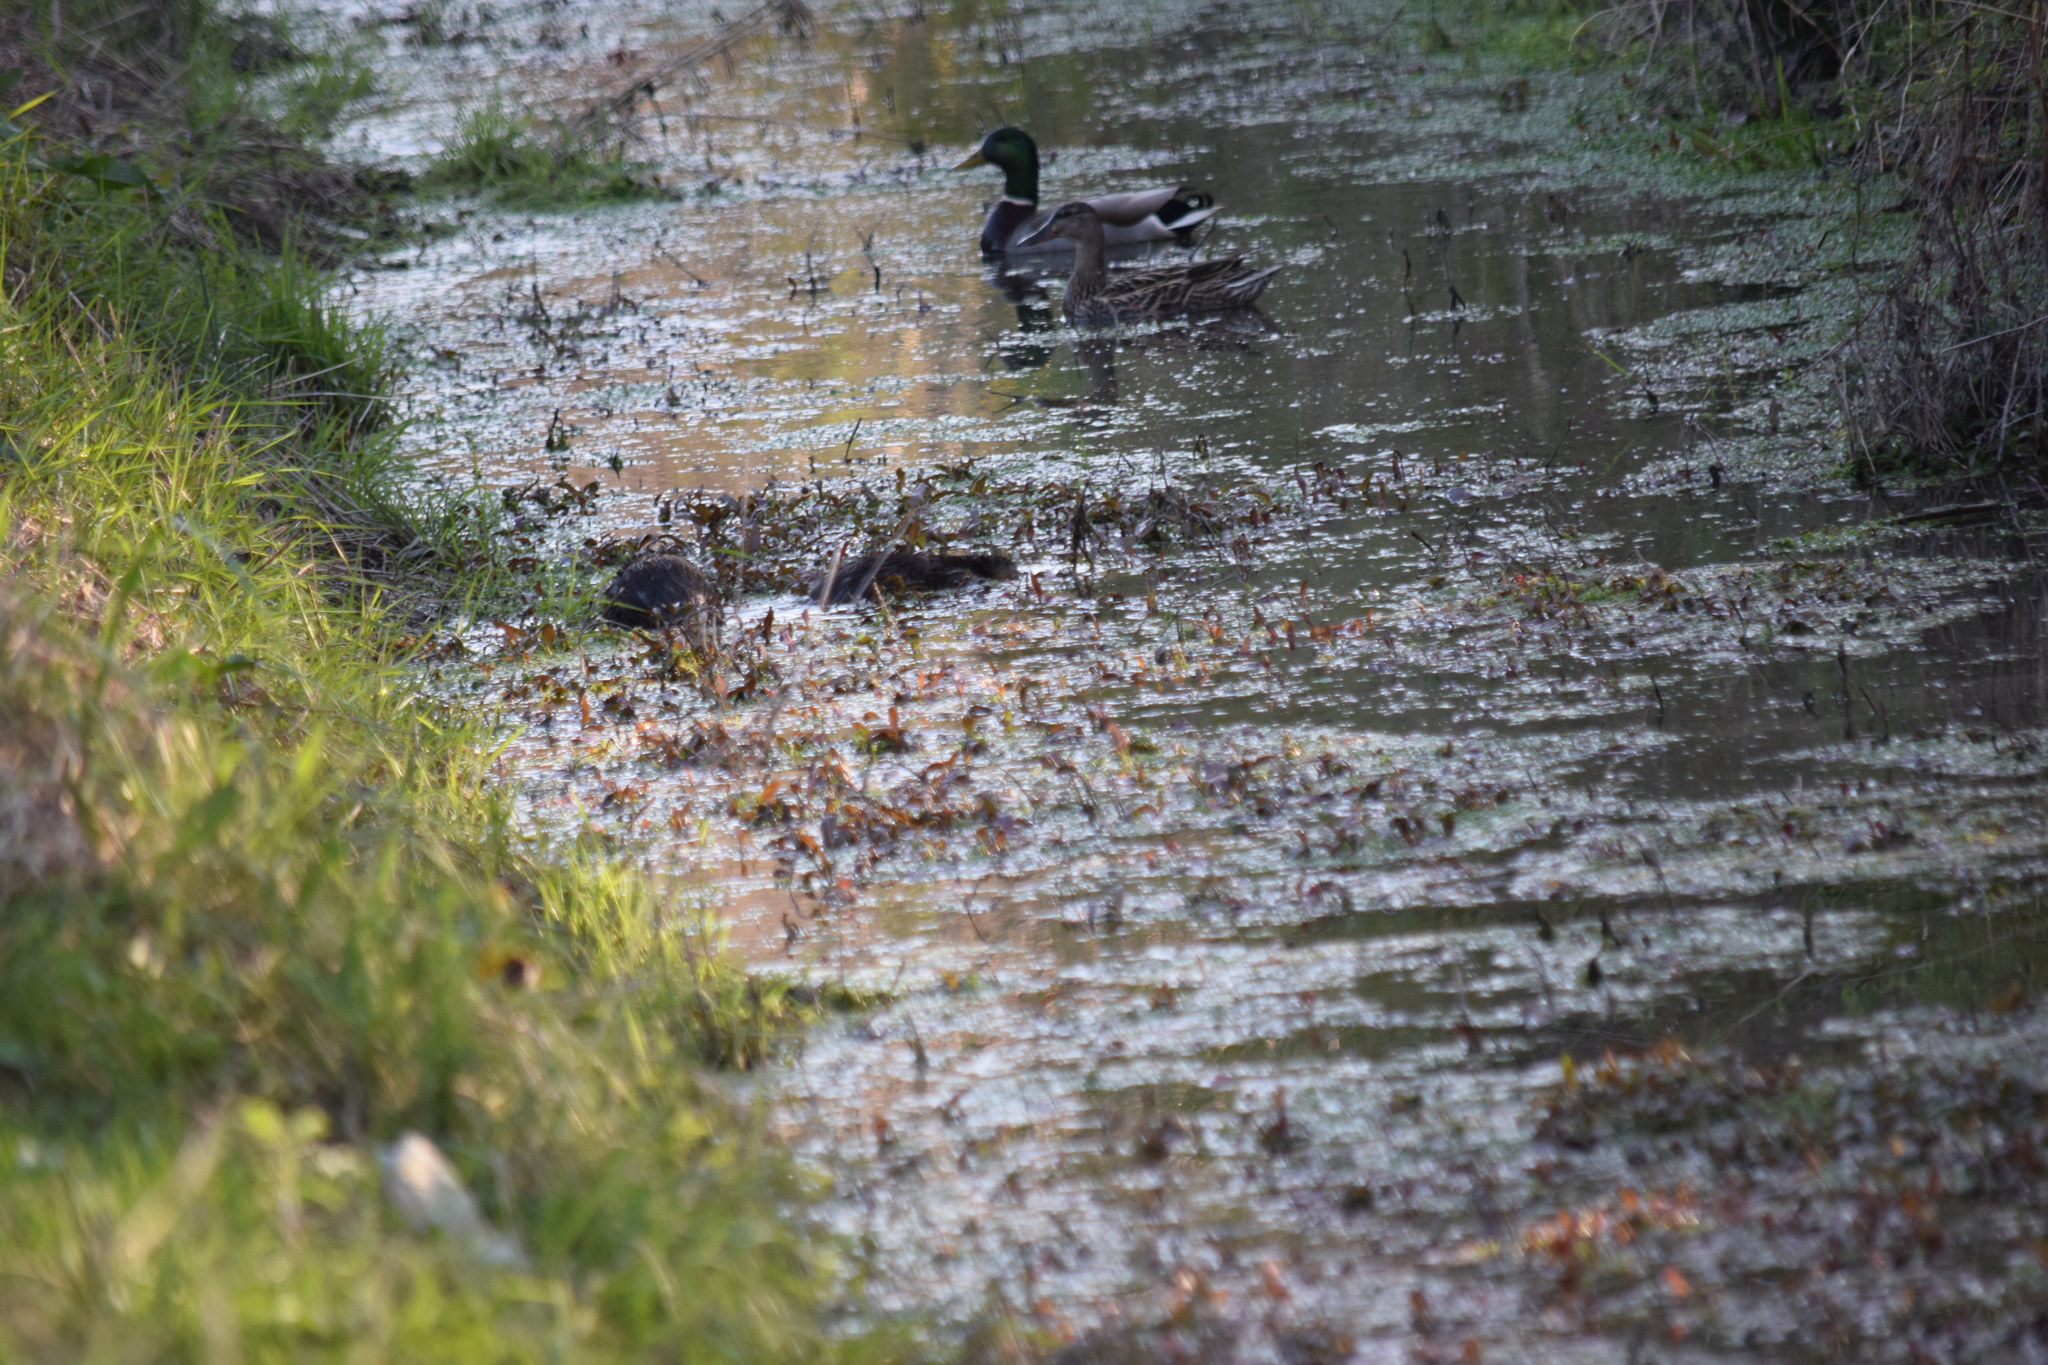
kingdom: Animalia
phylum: Chordata
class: Mammalia
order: Rodentia
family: Cricetidae
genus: Ondatra
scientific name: Ondatra zibethicus
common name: Muskrat
